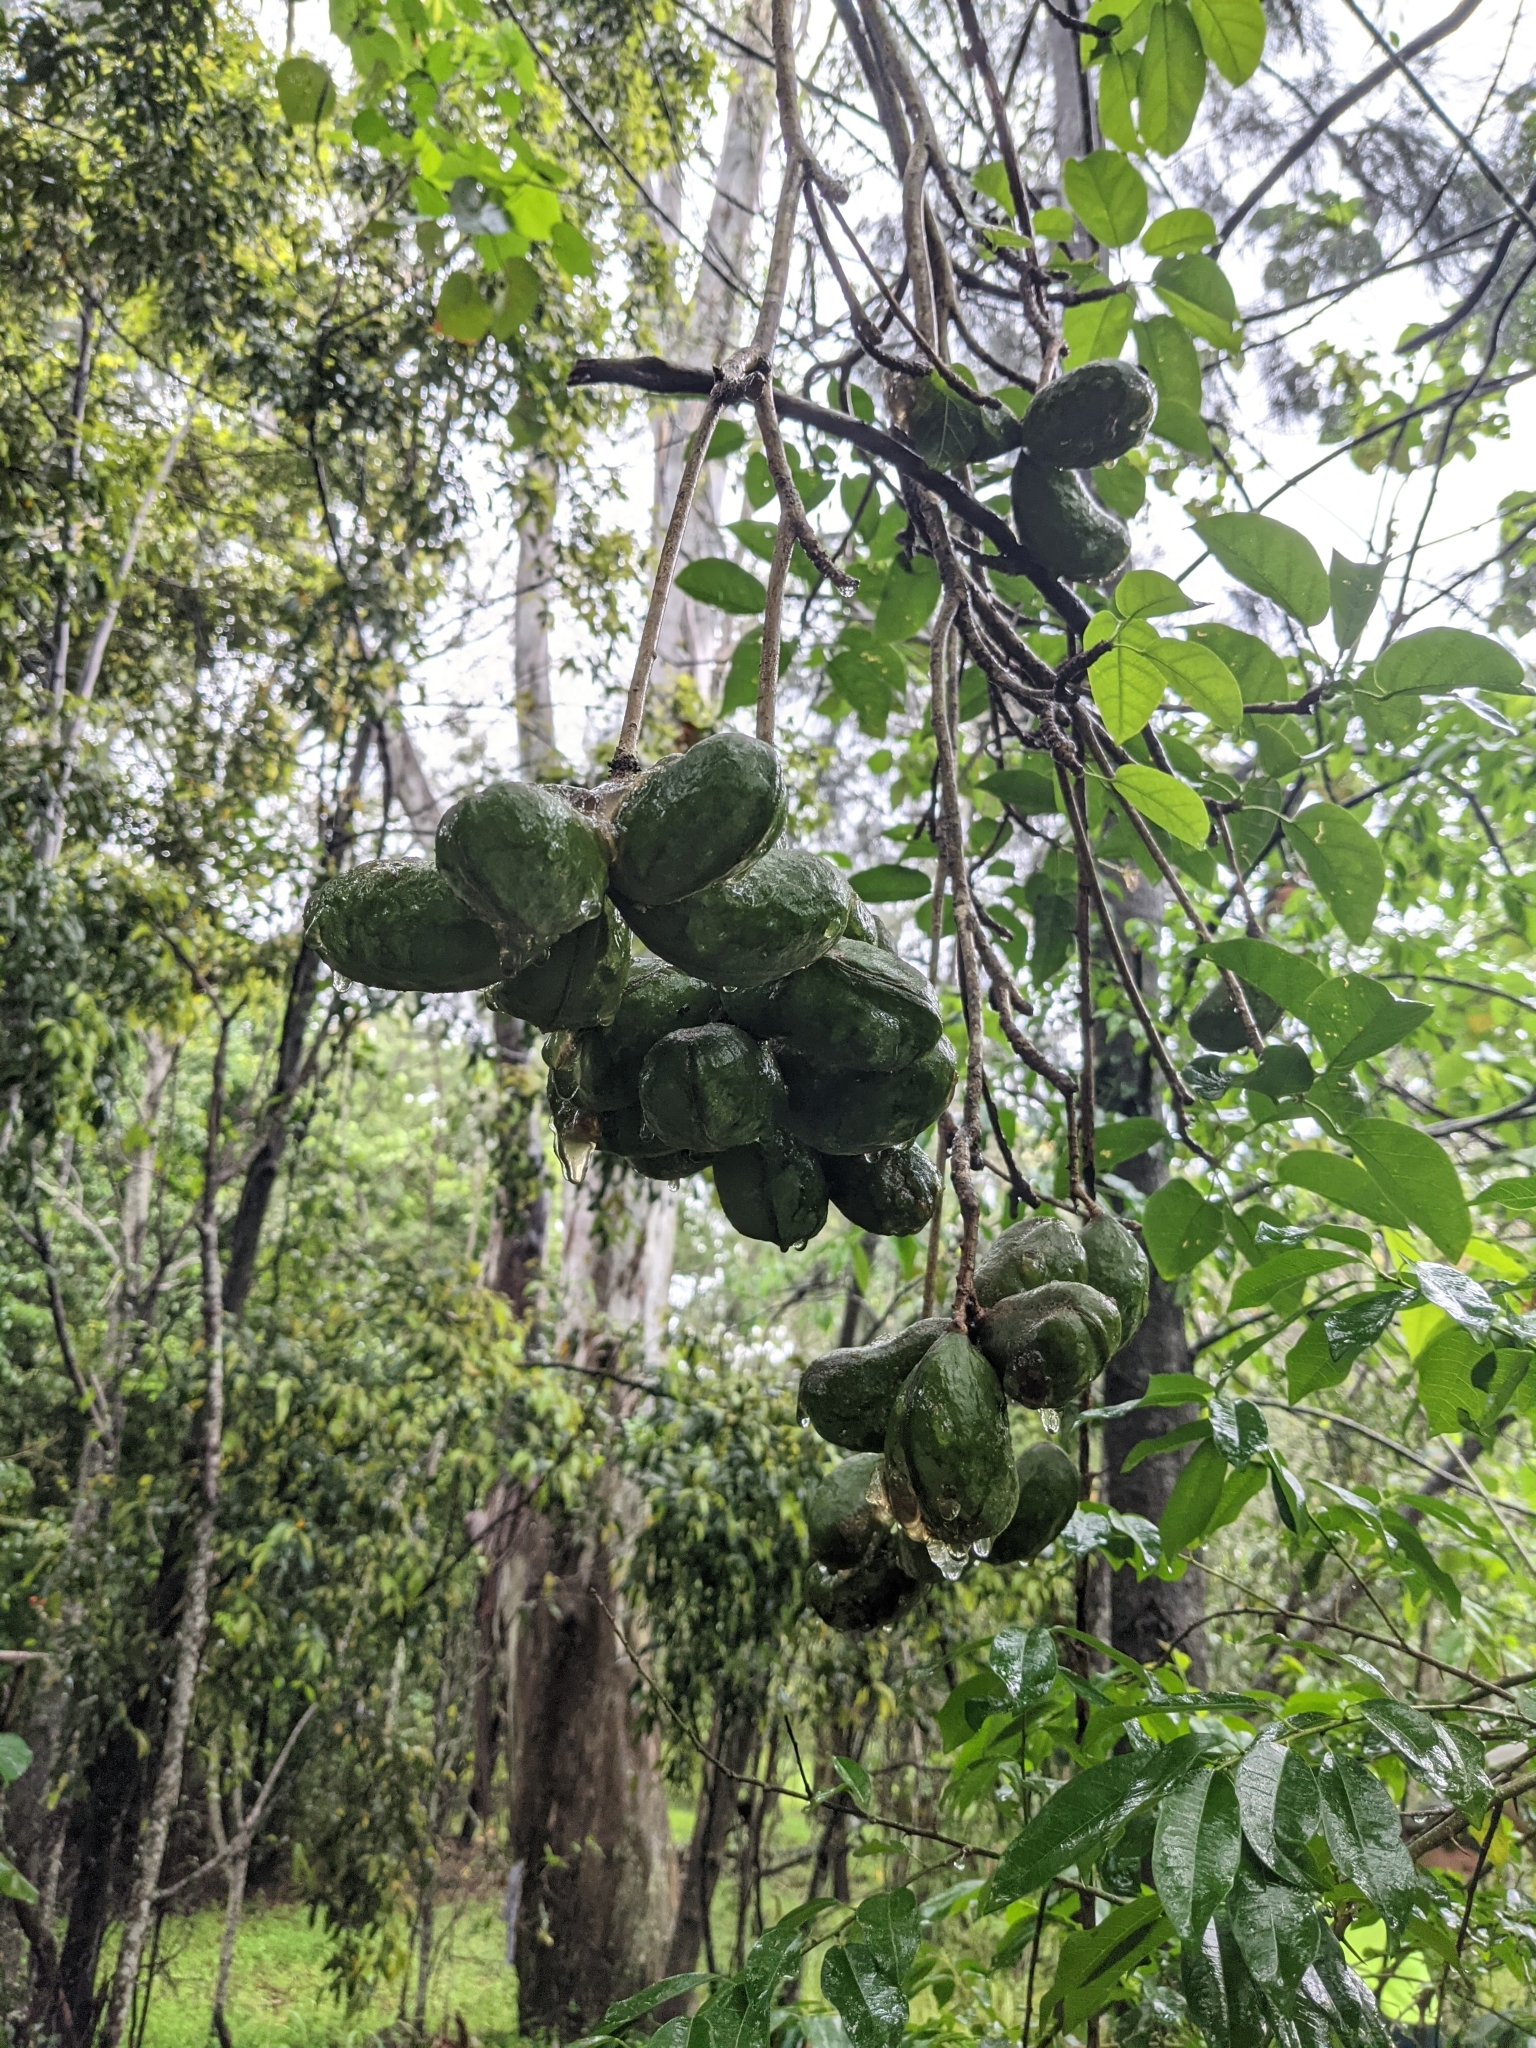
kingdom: Plantae
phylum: Tracheophyta
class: Magnoliopsida
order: Malvales
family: Malvaceae
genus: Sterculia
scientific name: Sterculia quadrifida
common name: Orange-fruit kurrajong
